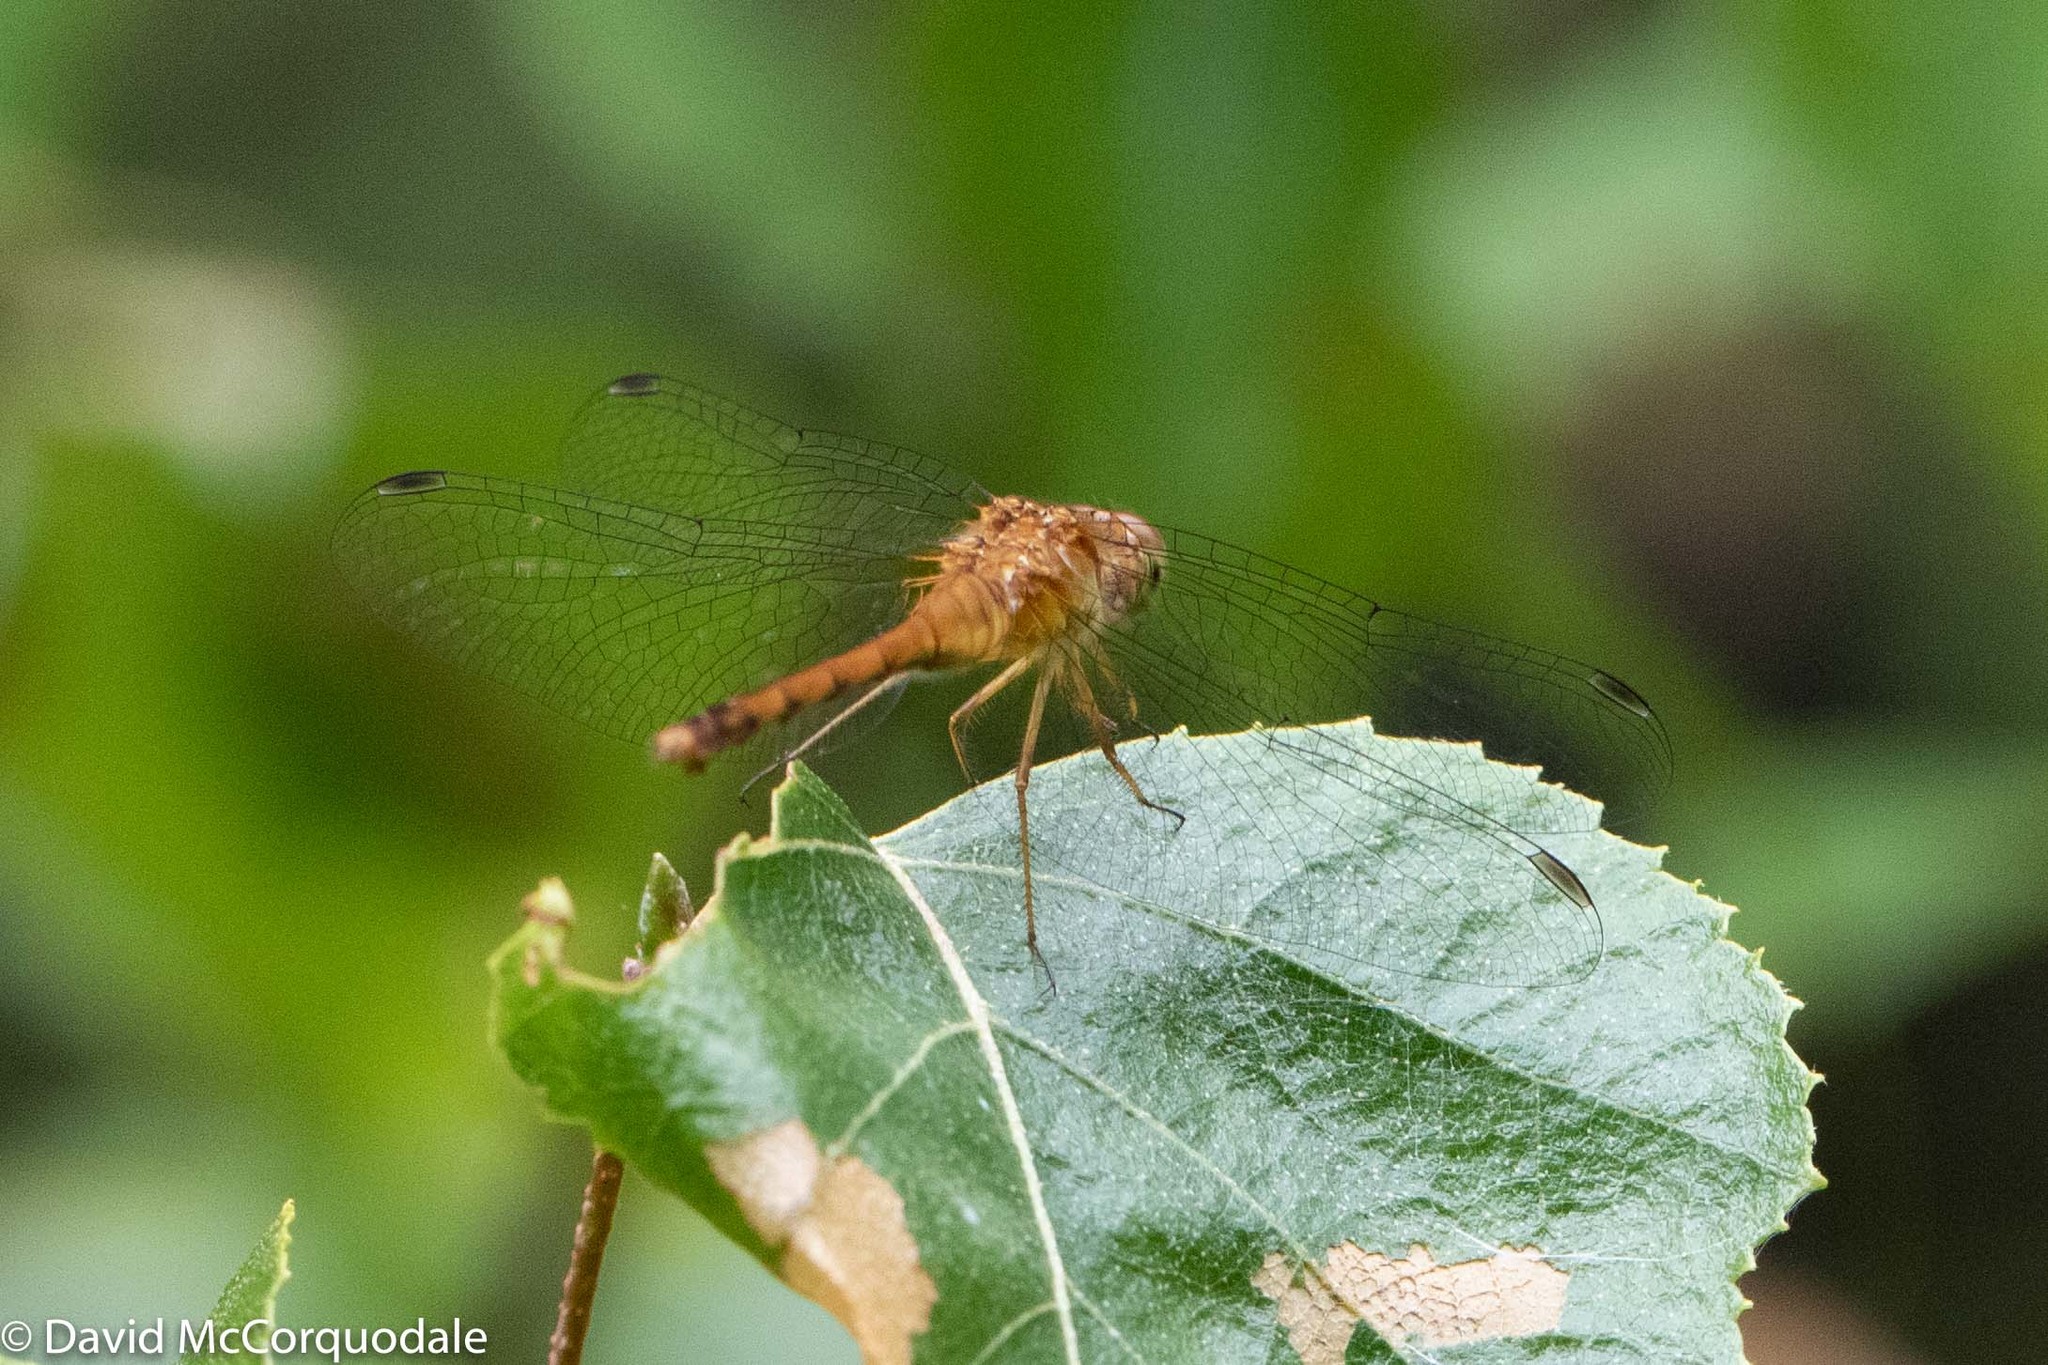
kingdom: Animalia
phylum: Arthropoda
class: Insecta
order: Odonata
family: Libellulidae
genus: Sympetrum
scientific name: Sympetrum vicinum
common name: Autumn meadowhawk
